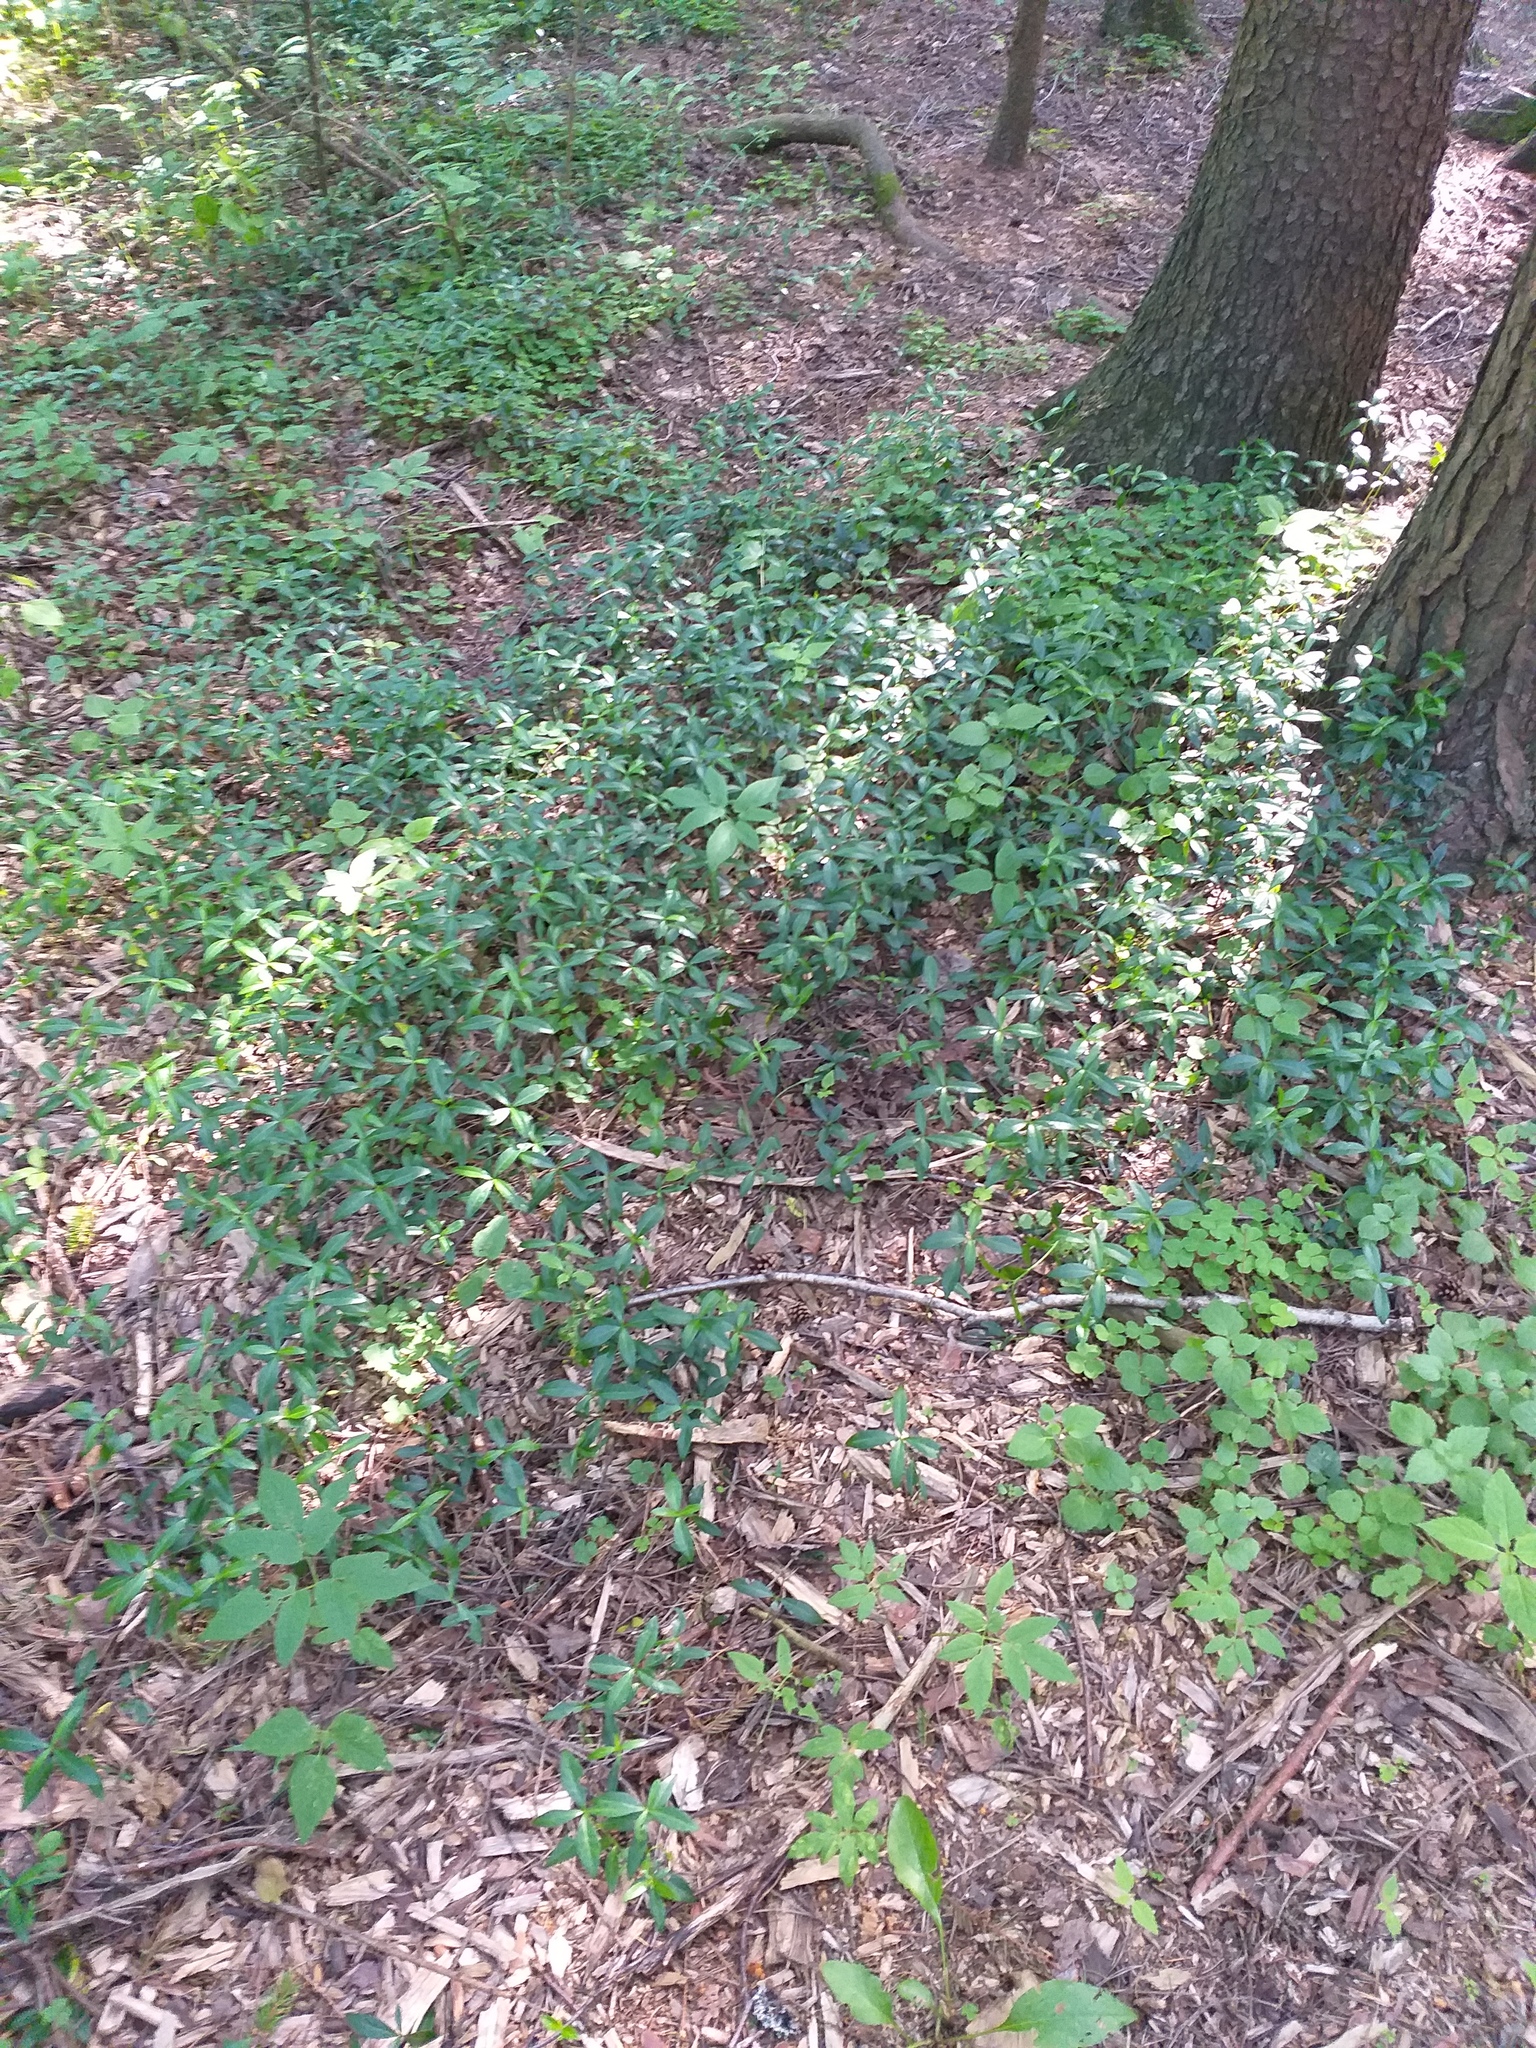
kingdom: Plantae
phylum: Tracheophyta
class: Magnoliopsida
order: Gentianales
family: Apocynaceae
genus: Vinca
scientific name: Vinca minor
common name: Lesser periwinkle
